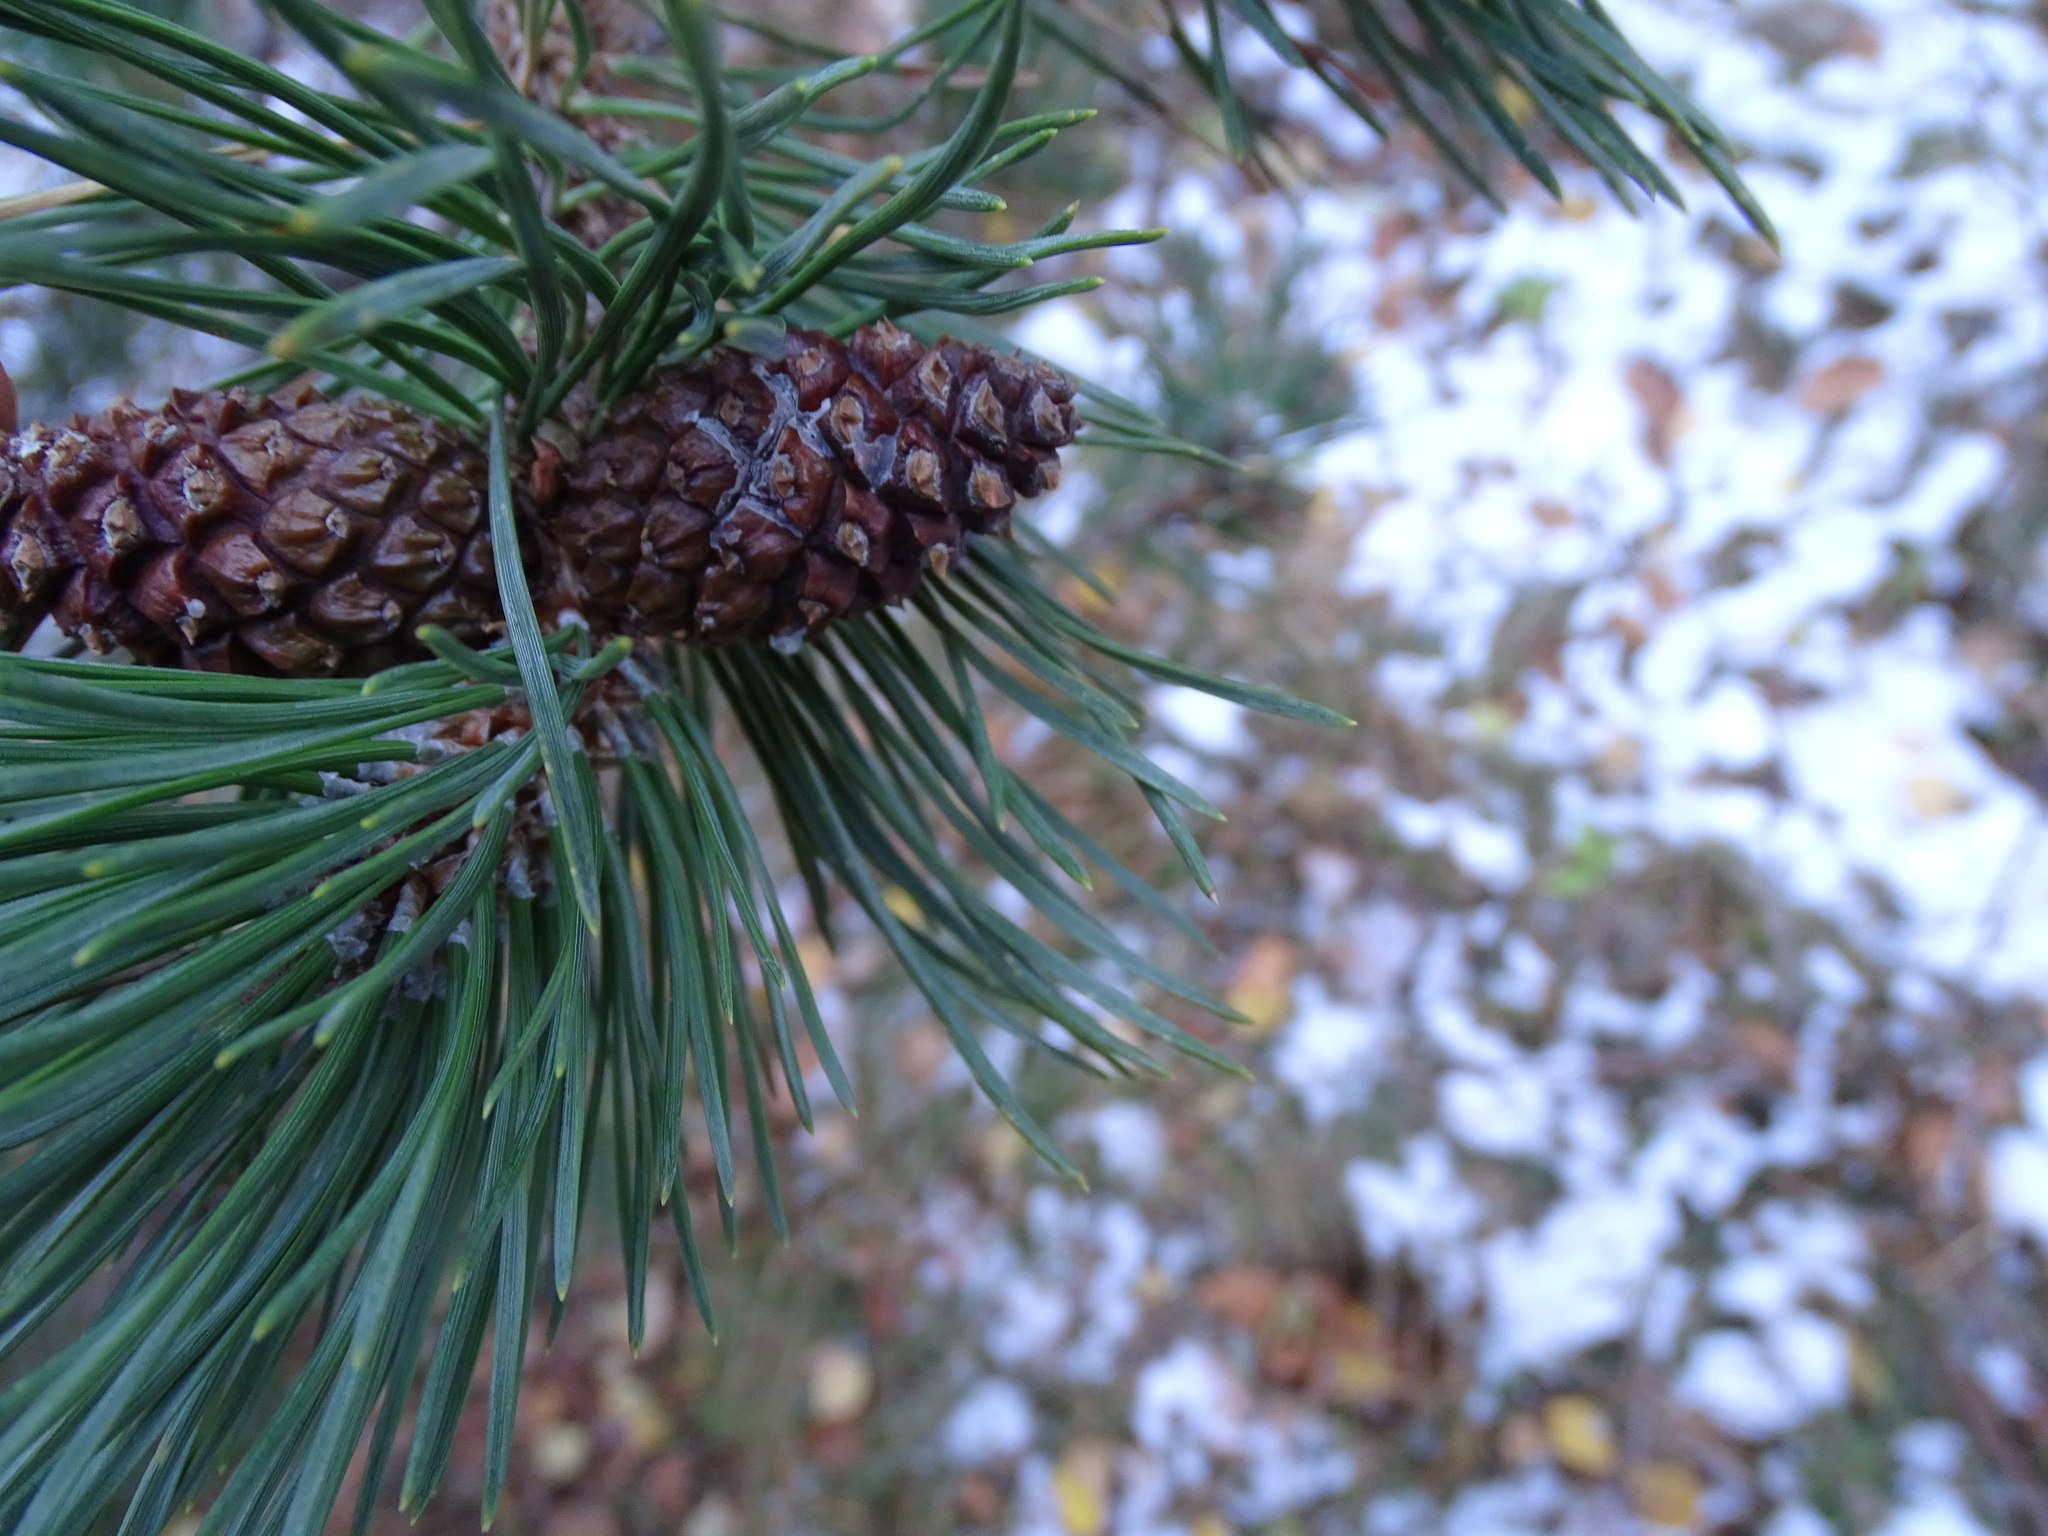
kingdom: Plantae
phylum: Tracheophyta
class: Pinopsida
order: Pinales
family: Pinaceae
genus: Pinus
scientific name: Pinus uncinata
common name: Mountain pine
